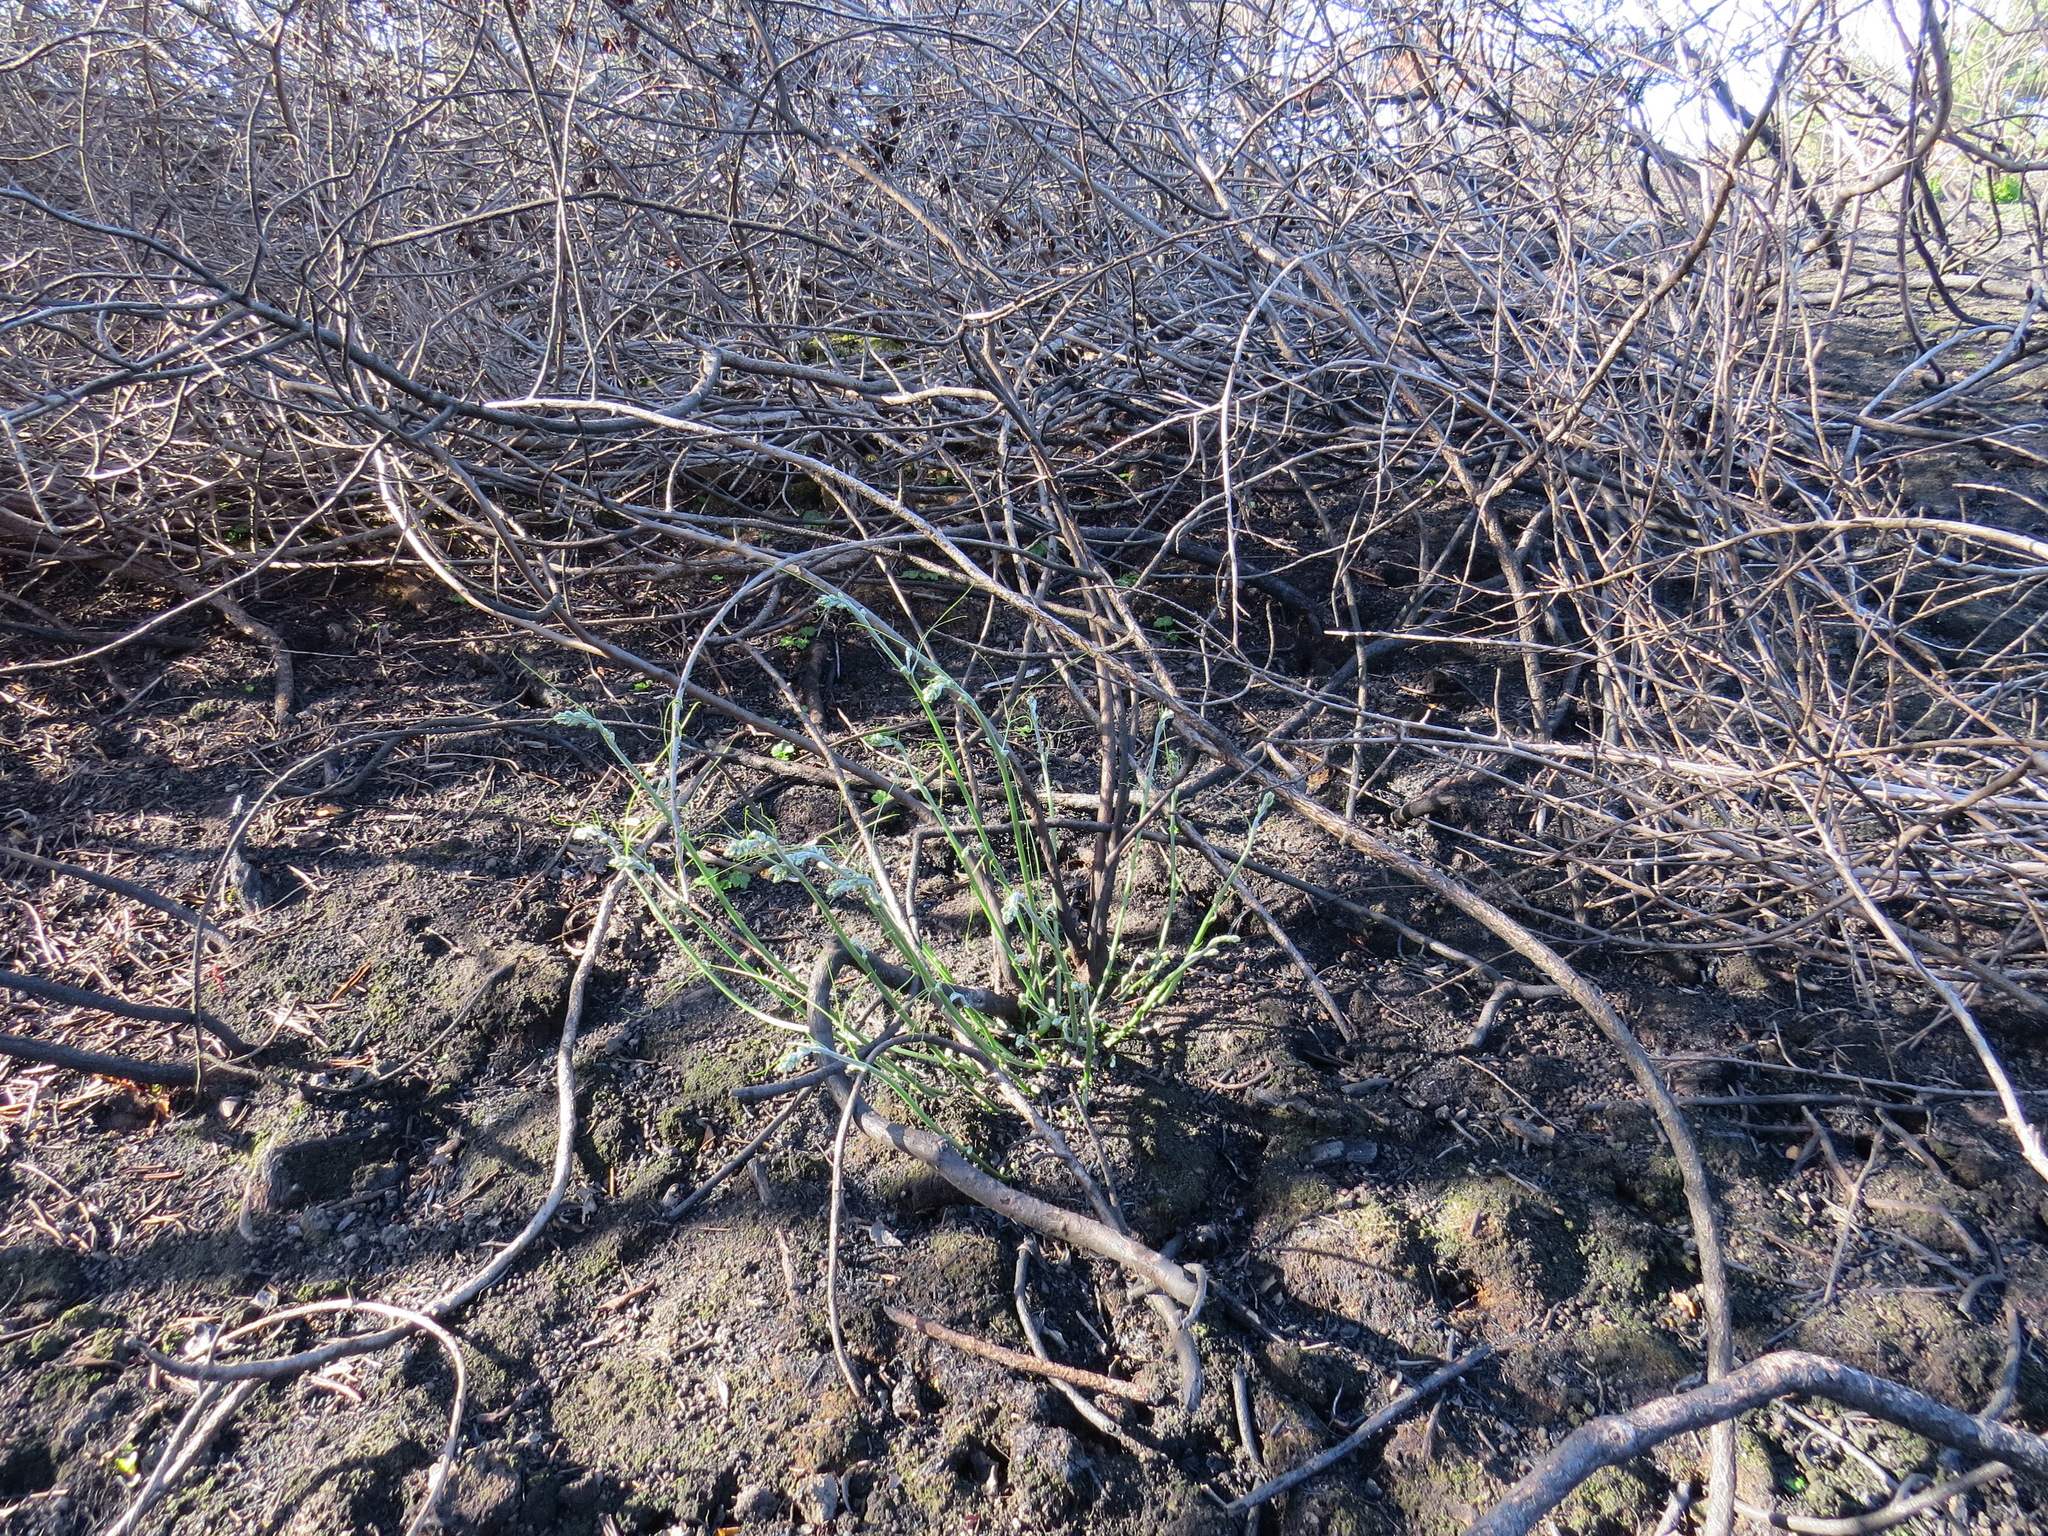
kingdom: Plantae
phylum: Tracheophyta
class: Magnoliopsida
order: Cucurbitales
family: Cucurbitaceae
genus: Marah
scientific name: Marah
